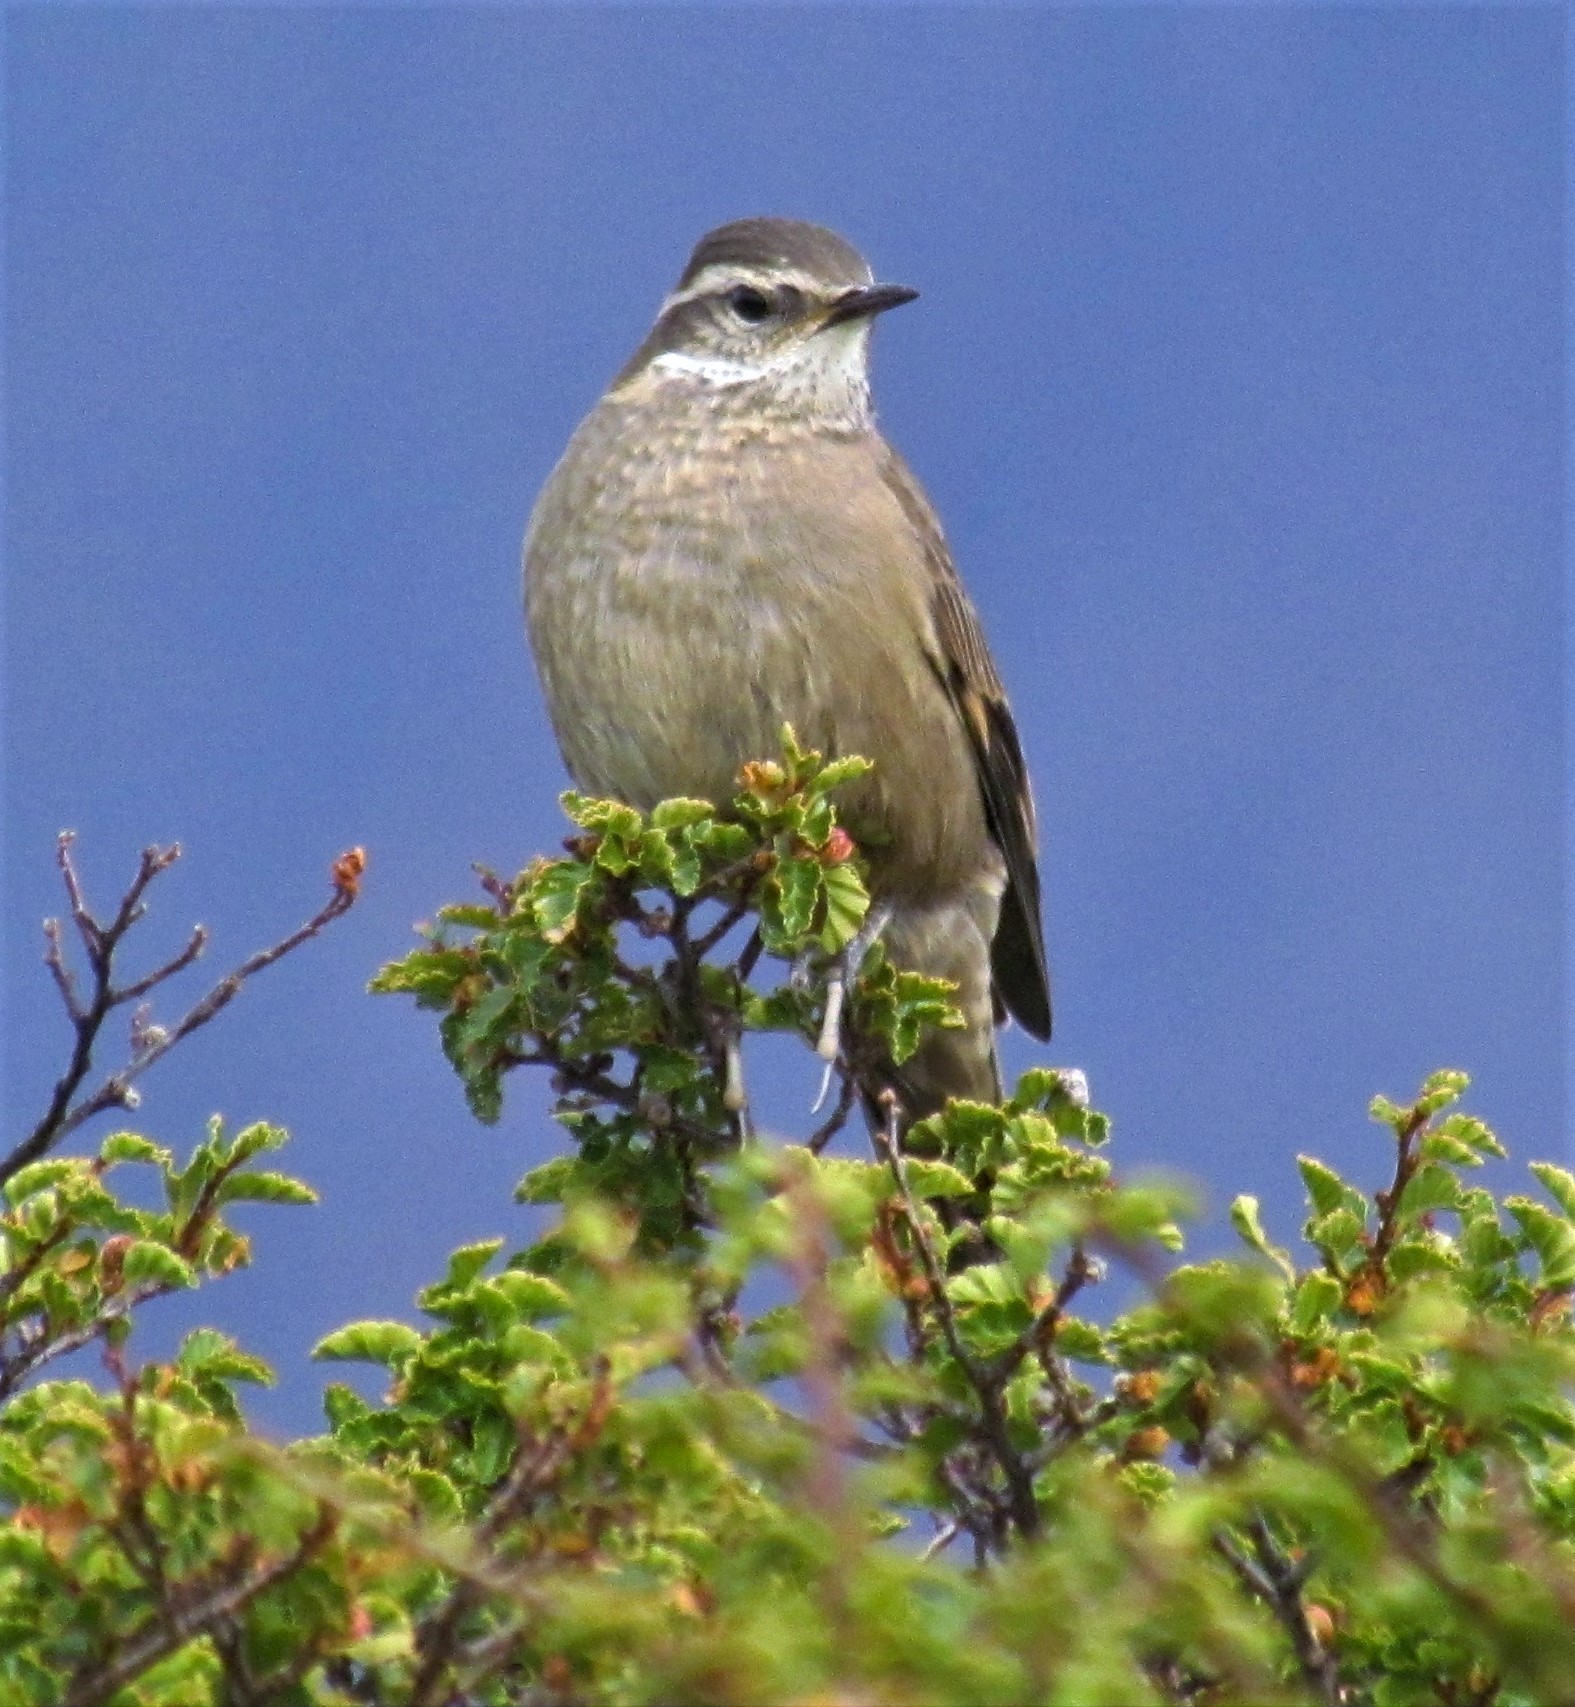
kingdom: Animalia
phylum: Chordata
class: Aves
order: Passeriformes
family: Furnariidae
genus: Cinclodes
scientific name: Cinclodes fuscus
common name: Buff-winged cinclodes
